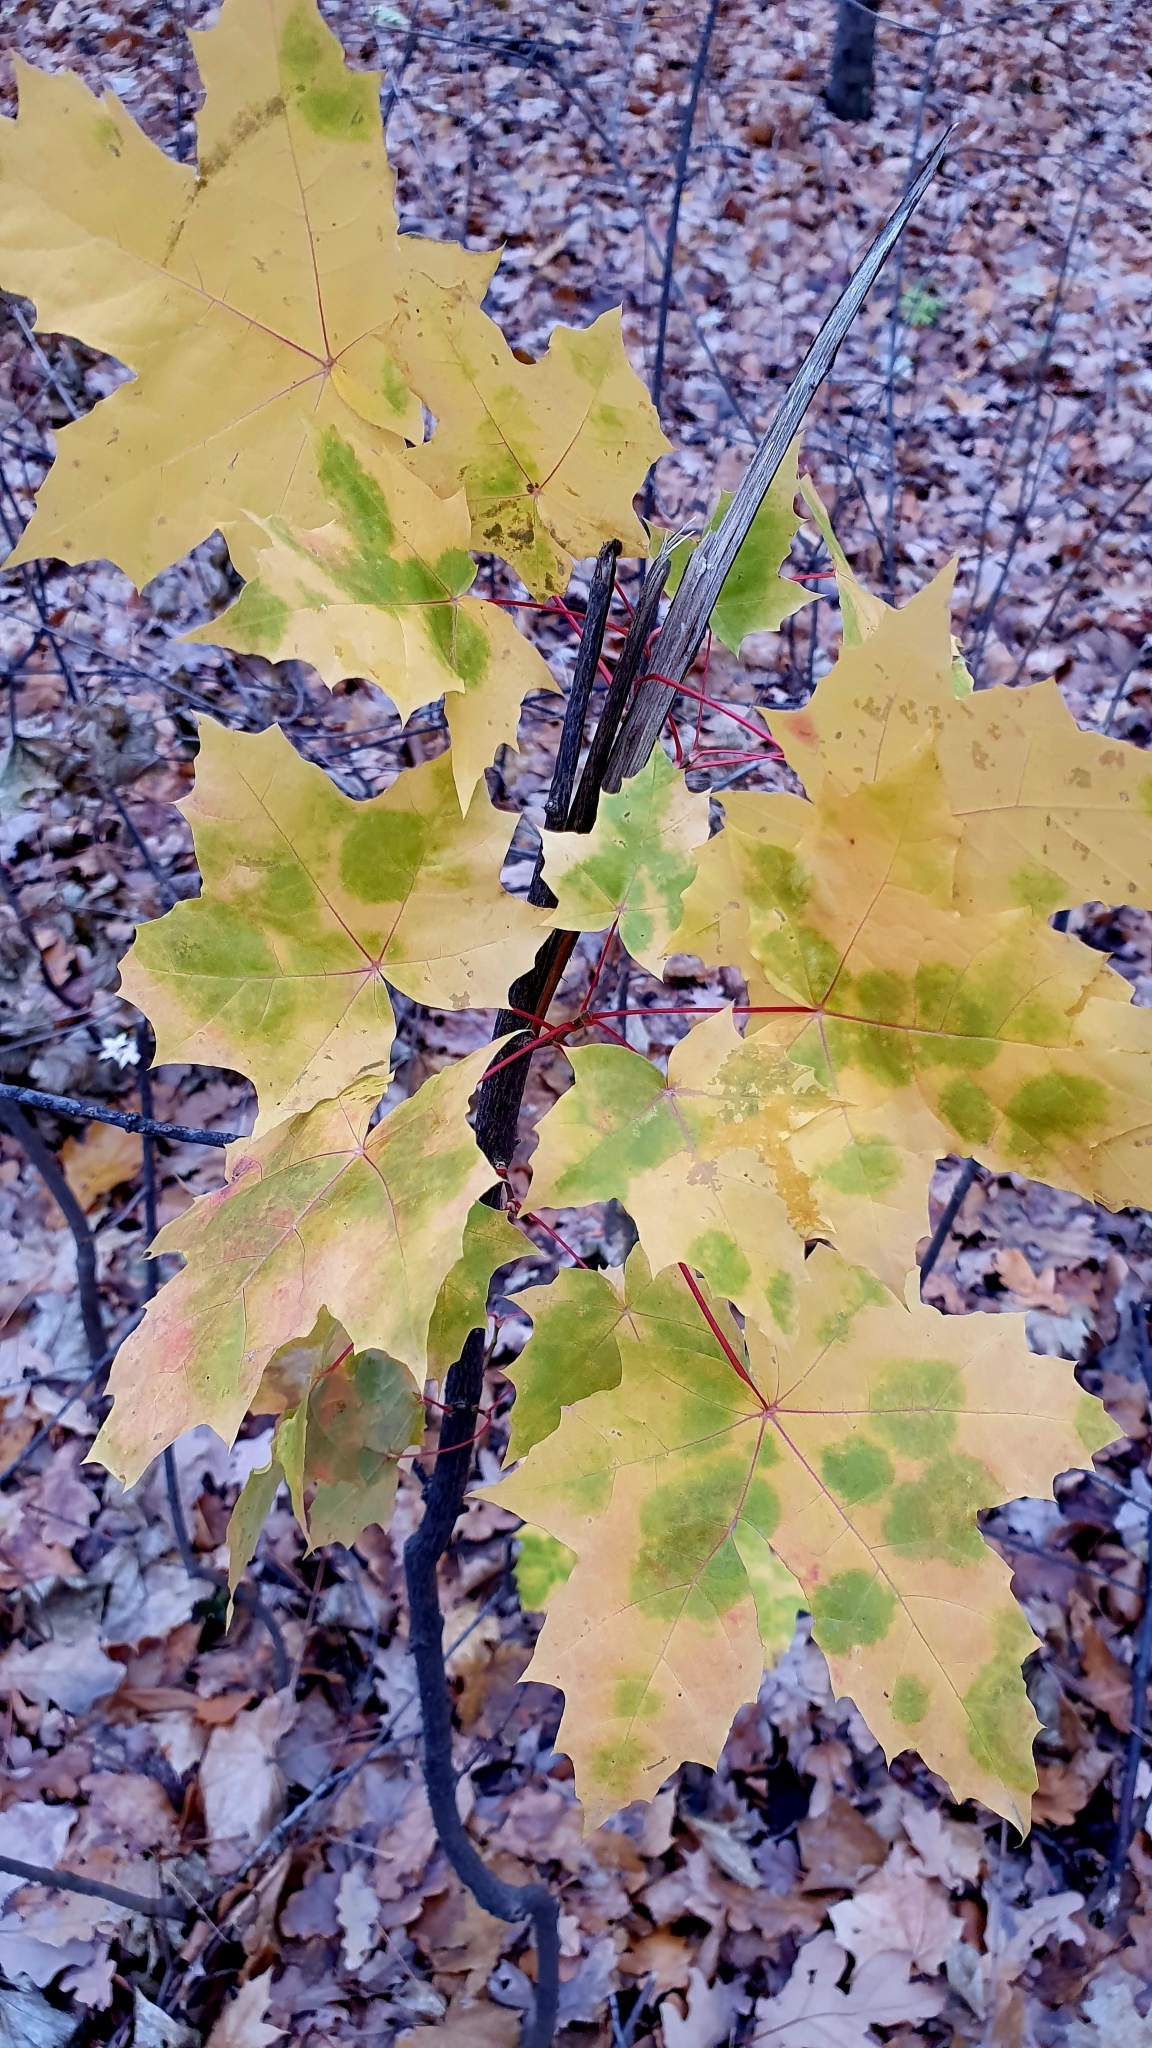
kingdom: Plantae
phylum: Tracheophyta
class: Magnoliopsida
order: Sapindales
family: Sapindaceae
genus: Acer
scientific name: Acer platanoides
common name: Norway maple
